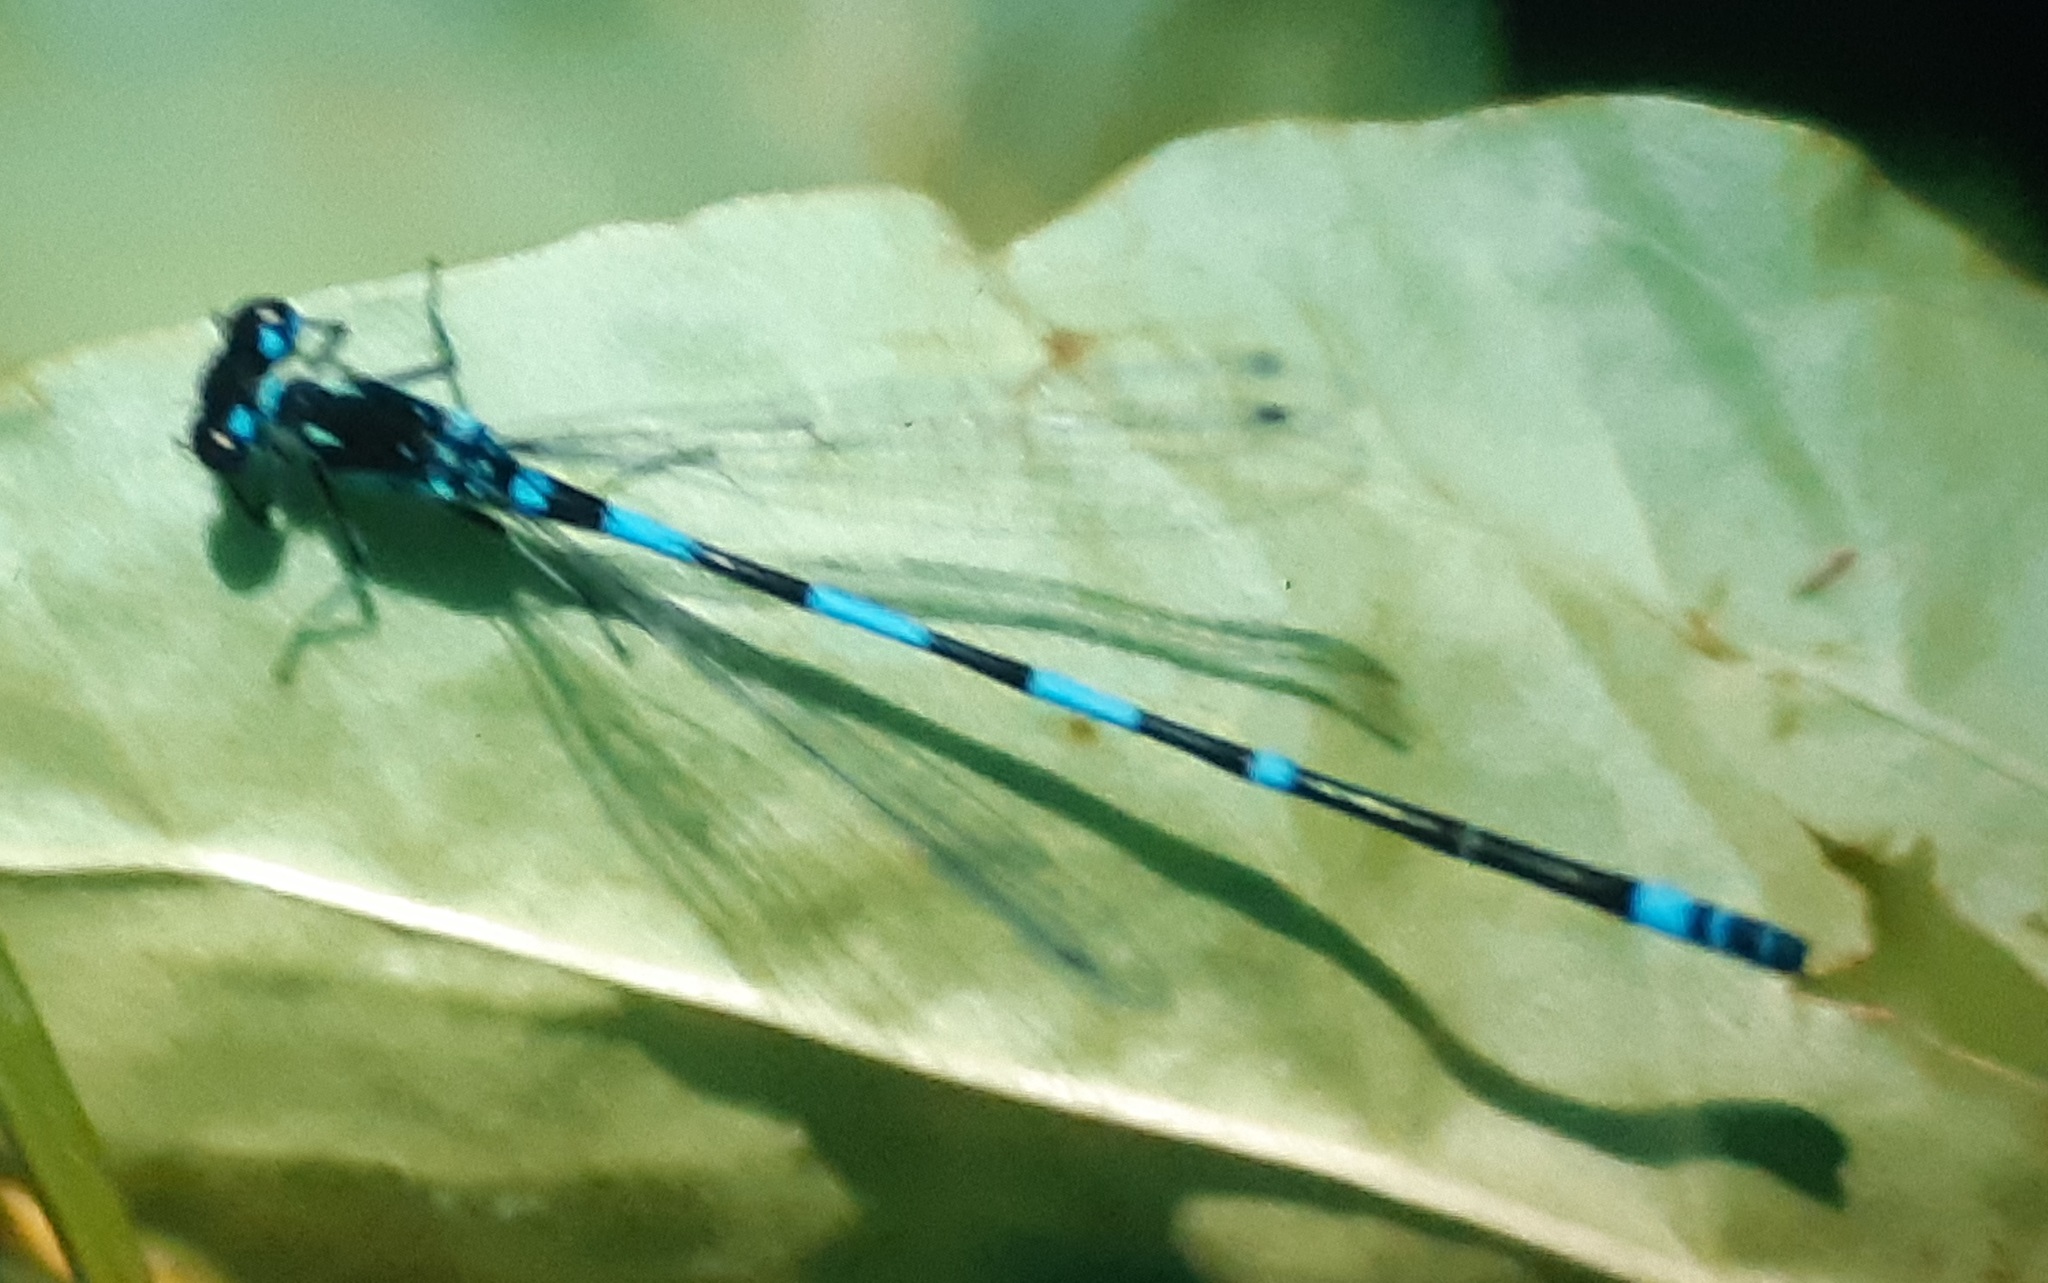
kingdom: Animalia
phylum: Arthropoda
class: Insecta
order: Odonata
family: Coenagrionidae
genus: Coenagrion
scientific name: Coenagrion pulchellum
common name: Variable bluet
